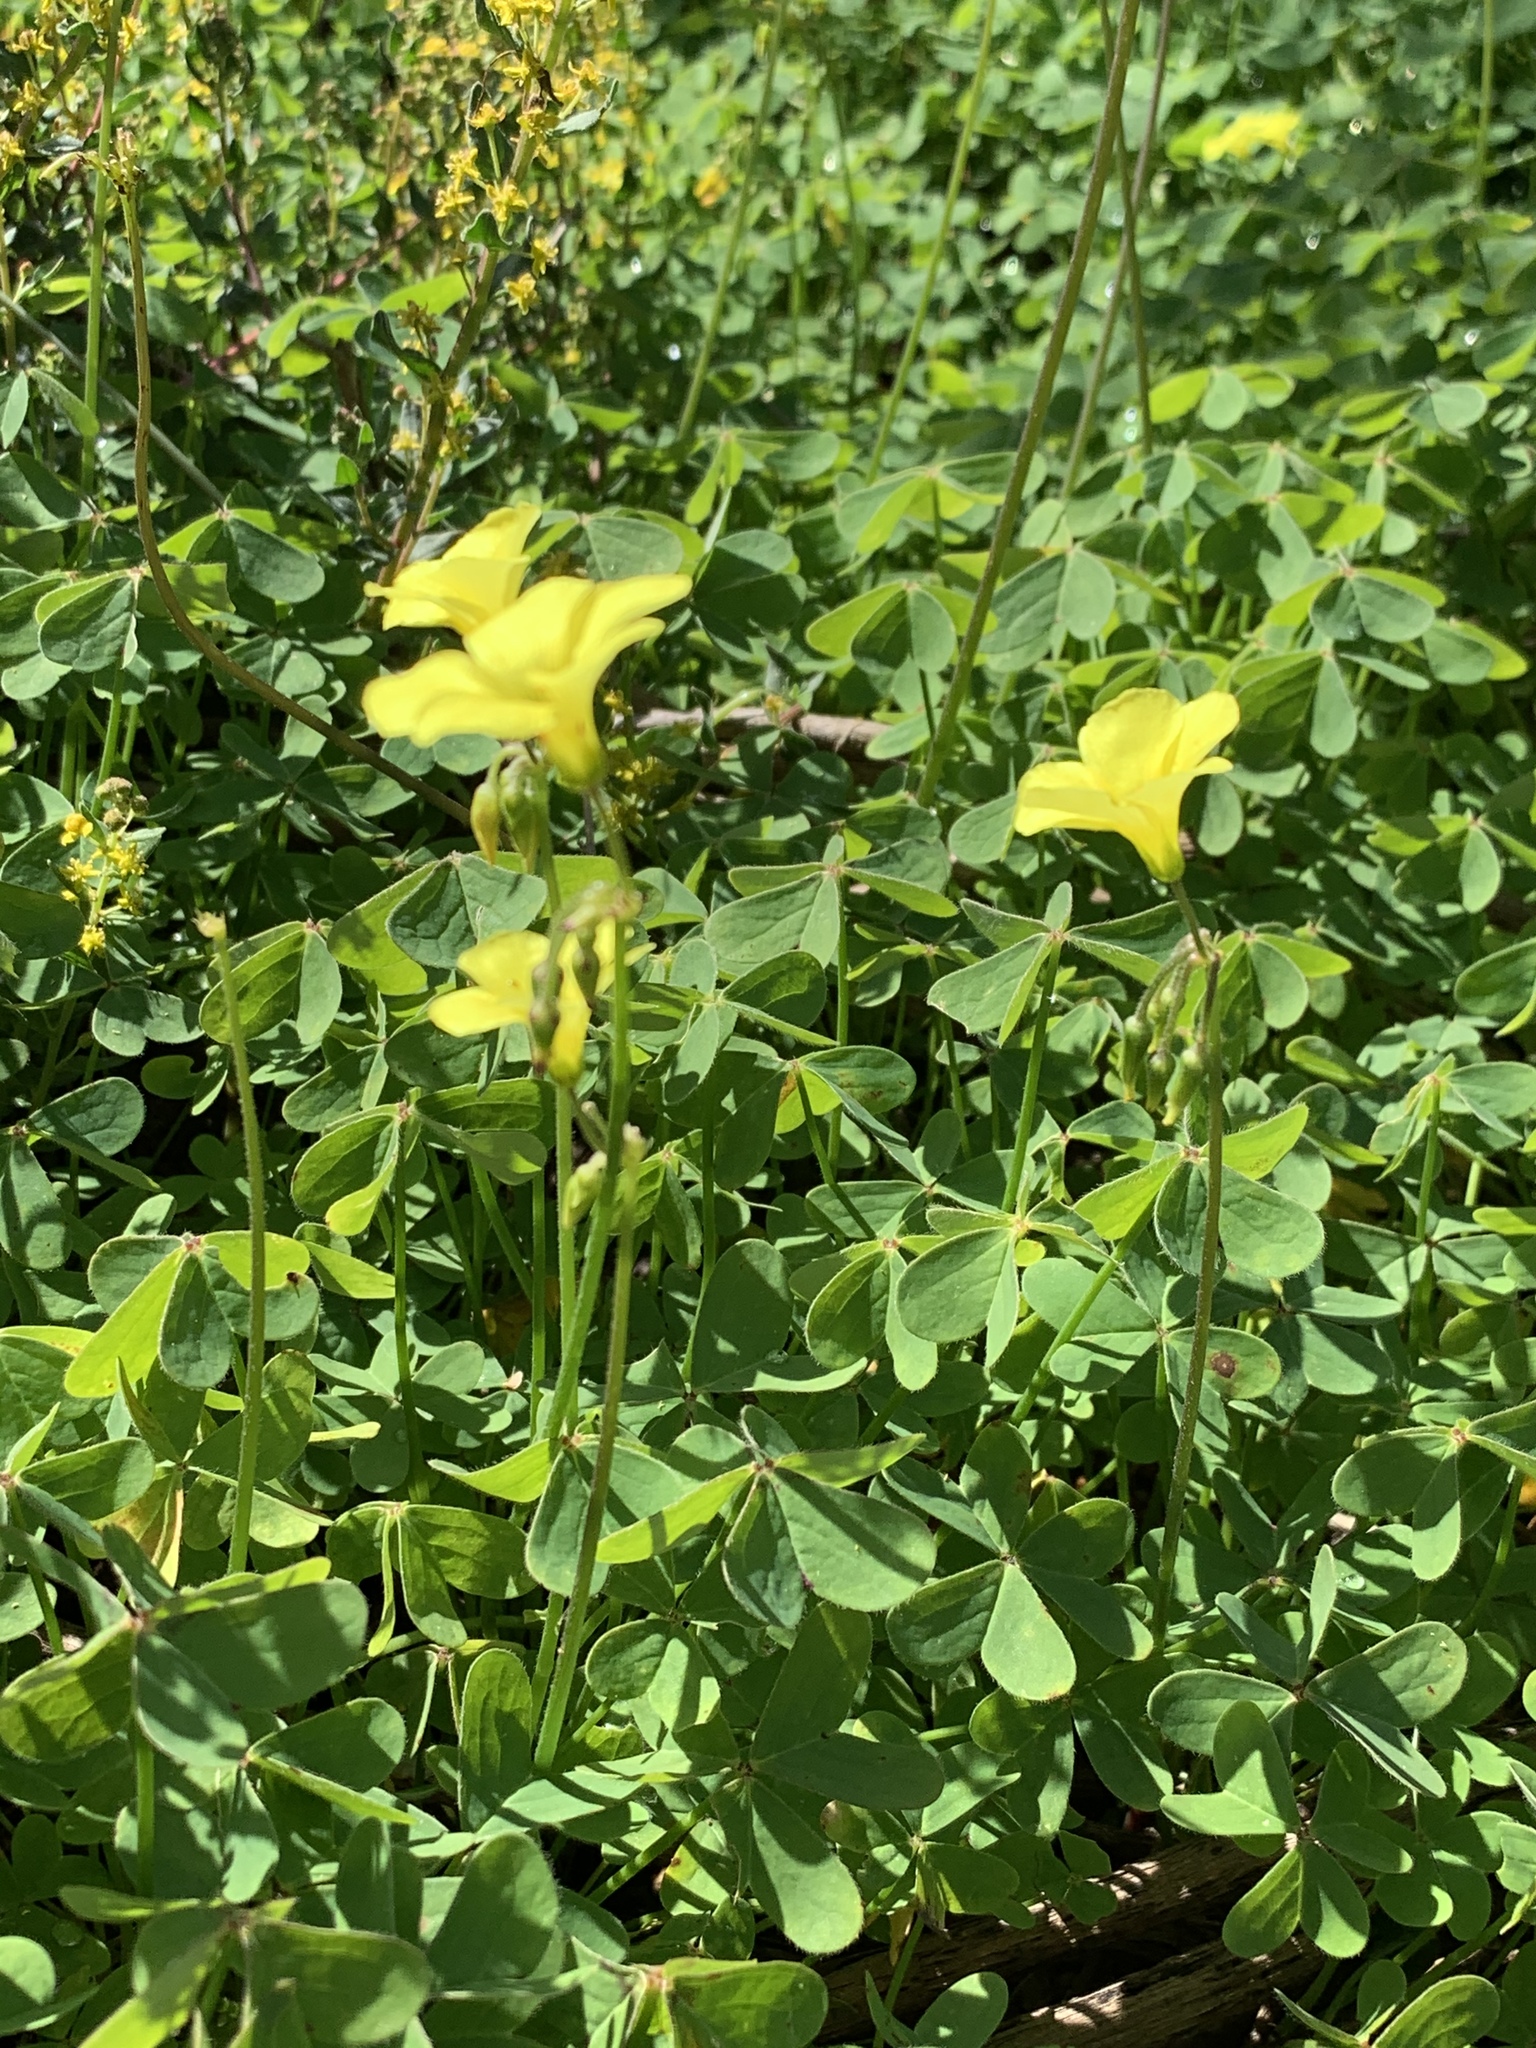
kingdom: Plantae
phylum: Tracheophyta
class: Magnoliopsida
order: Oxalidales
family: Oxalidaceae
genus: Oxalis
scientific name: Oxalis pes-caprae
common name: Bermuda-buttercup
